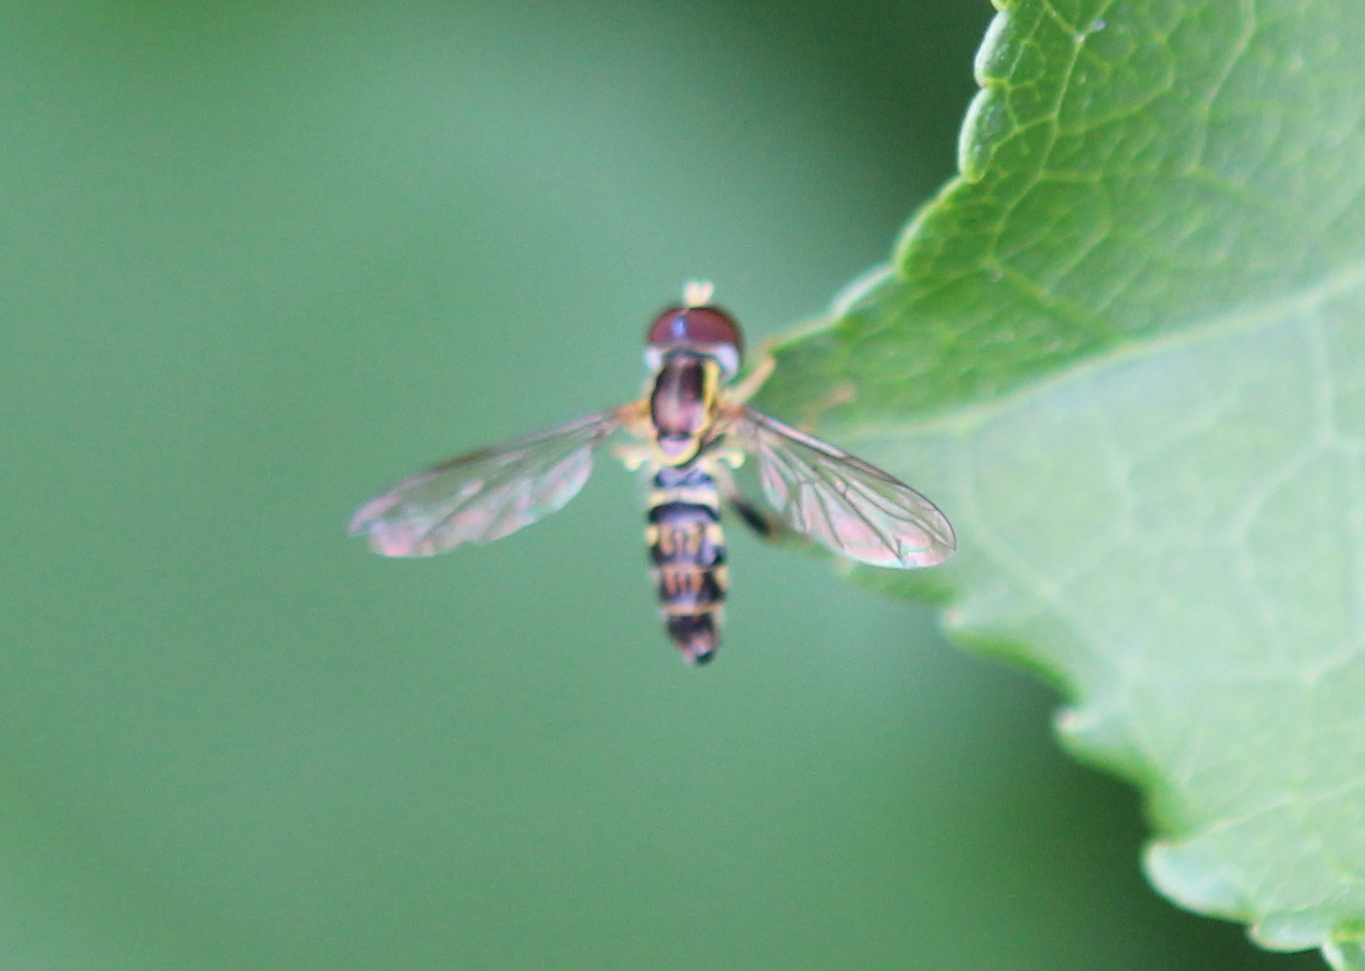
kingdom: Animalia
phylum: Arthropoda
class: Insecta
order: Diptera
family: Syrphidae
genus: Toxomerus
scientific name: Toxomerus geminatus
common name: Eastern calligrapher
